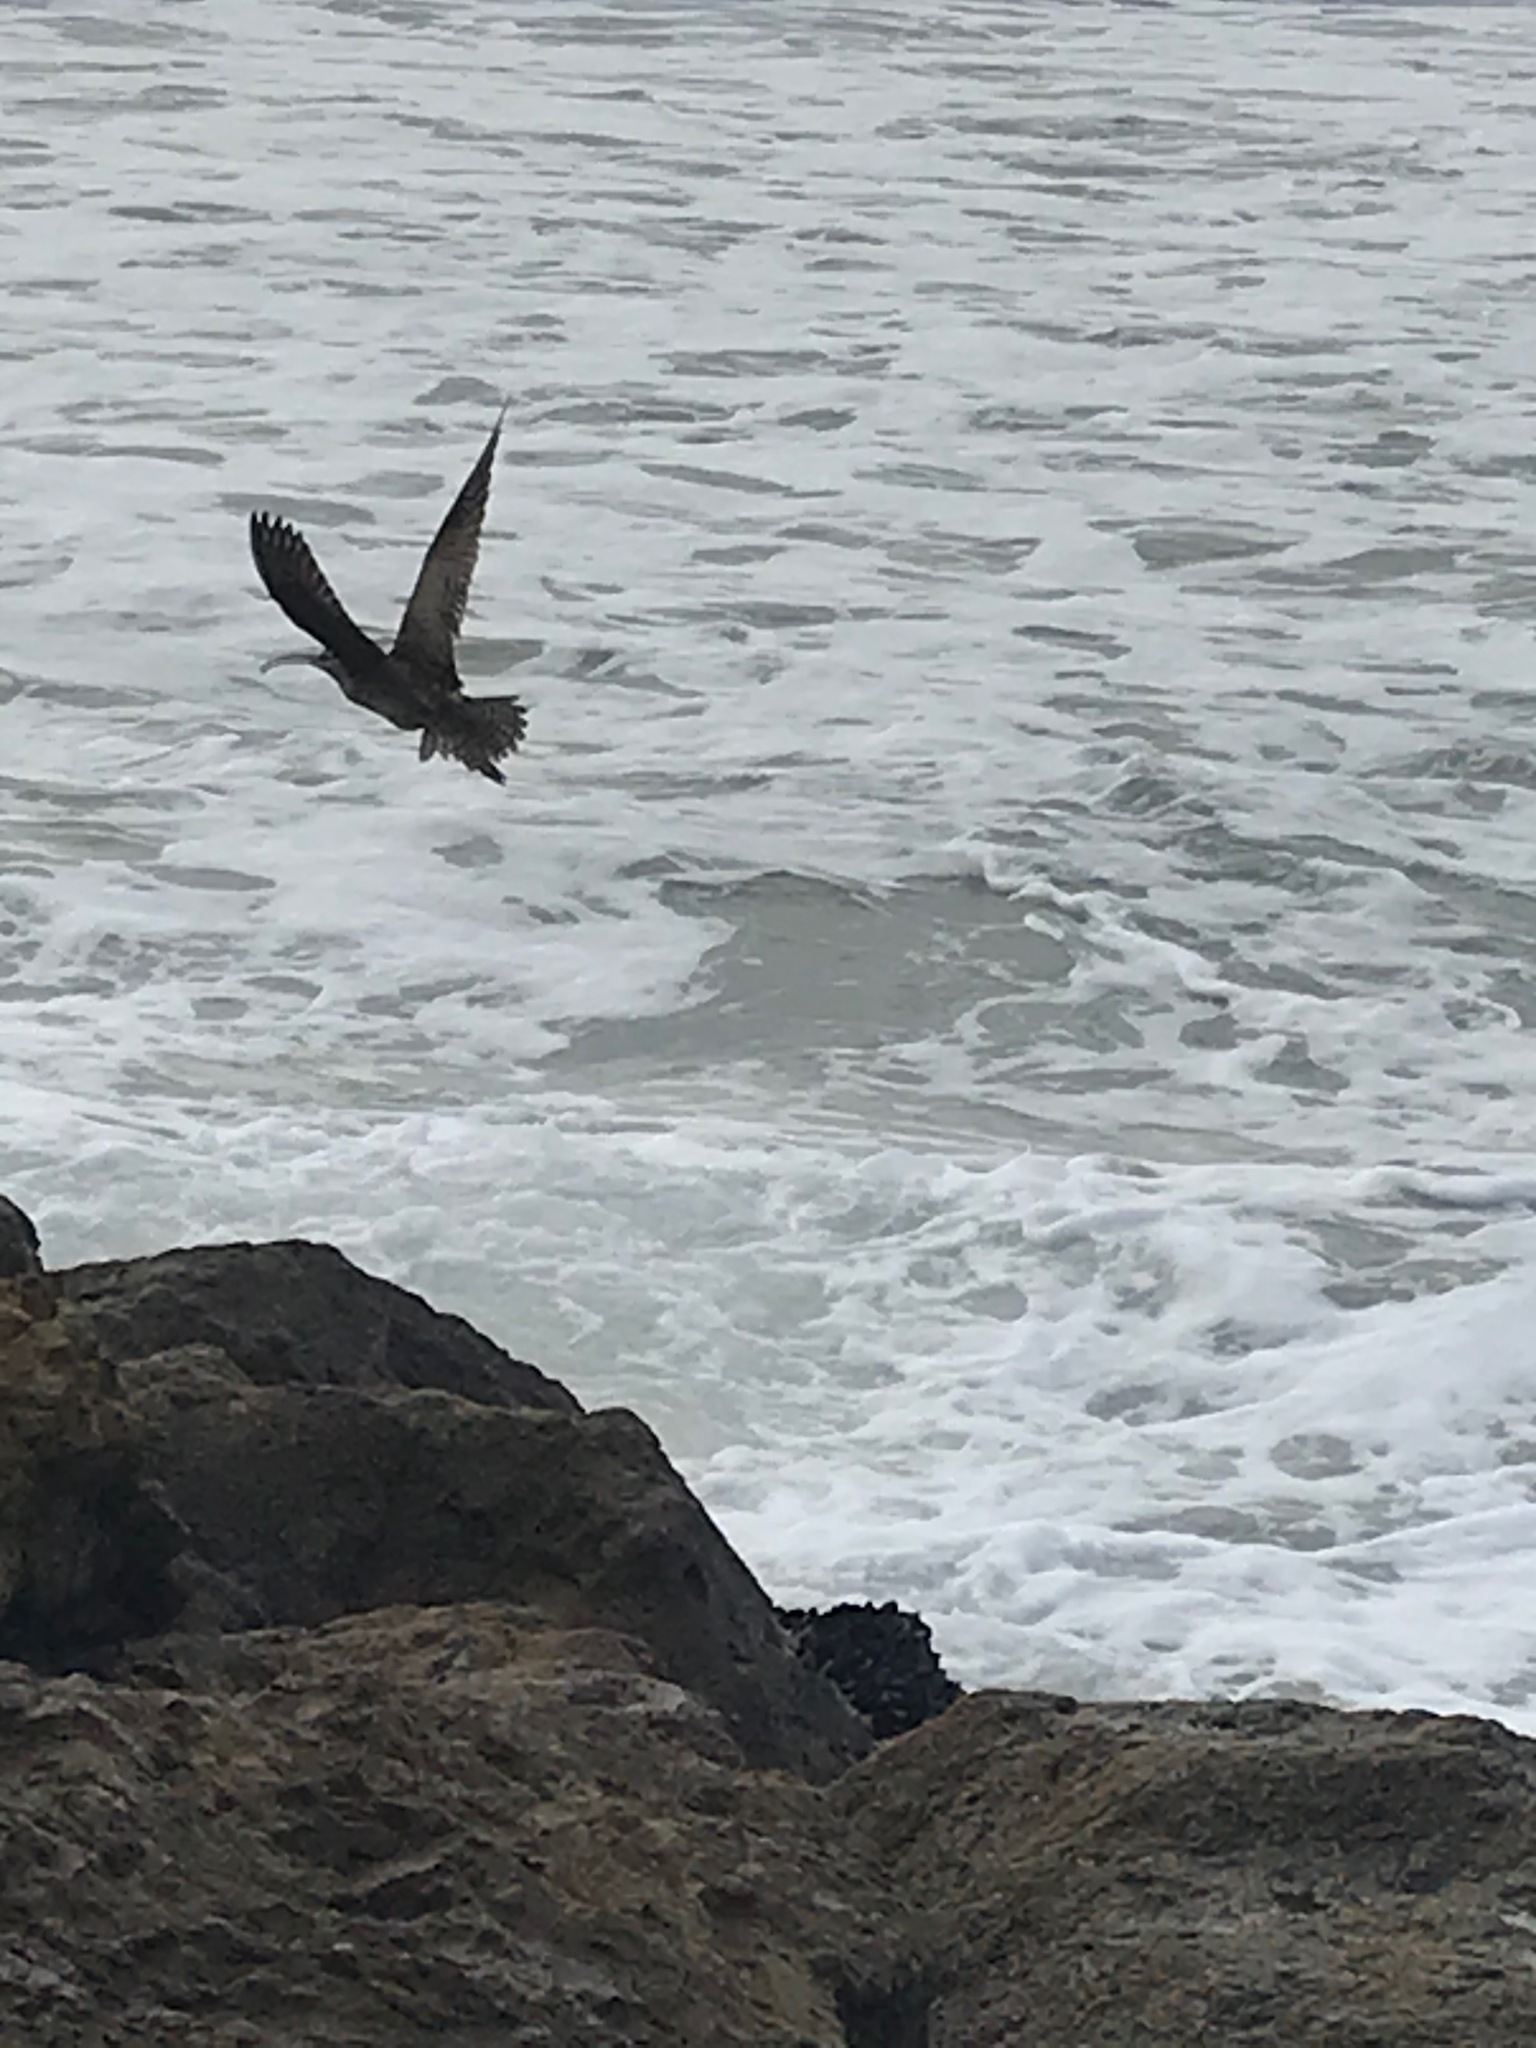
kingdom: Animalia
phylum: Chordata
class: Aves
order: Charadriiformes
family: Scolopacidae
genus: Numenius
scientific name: Numenius phaeopus
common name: Whimbrel
